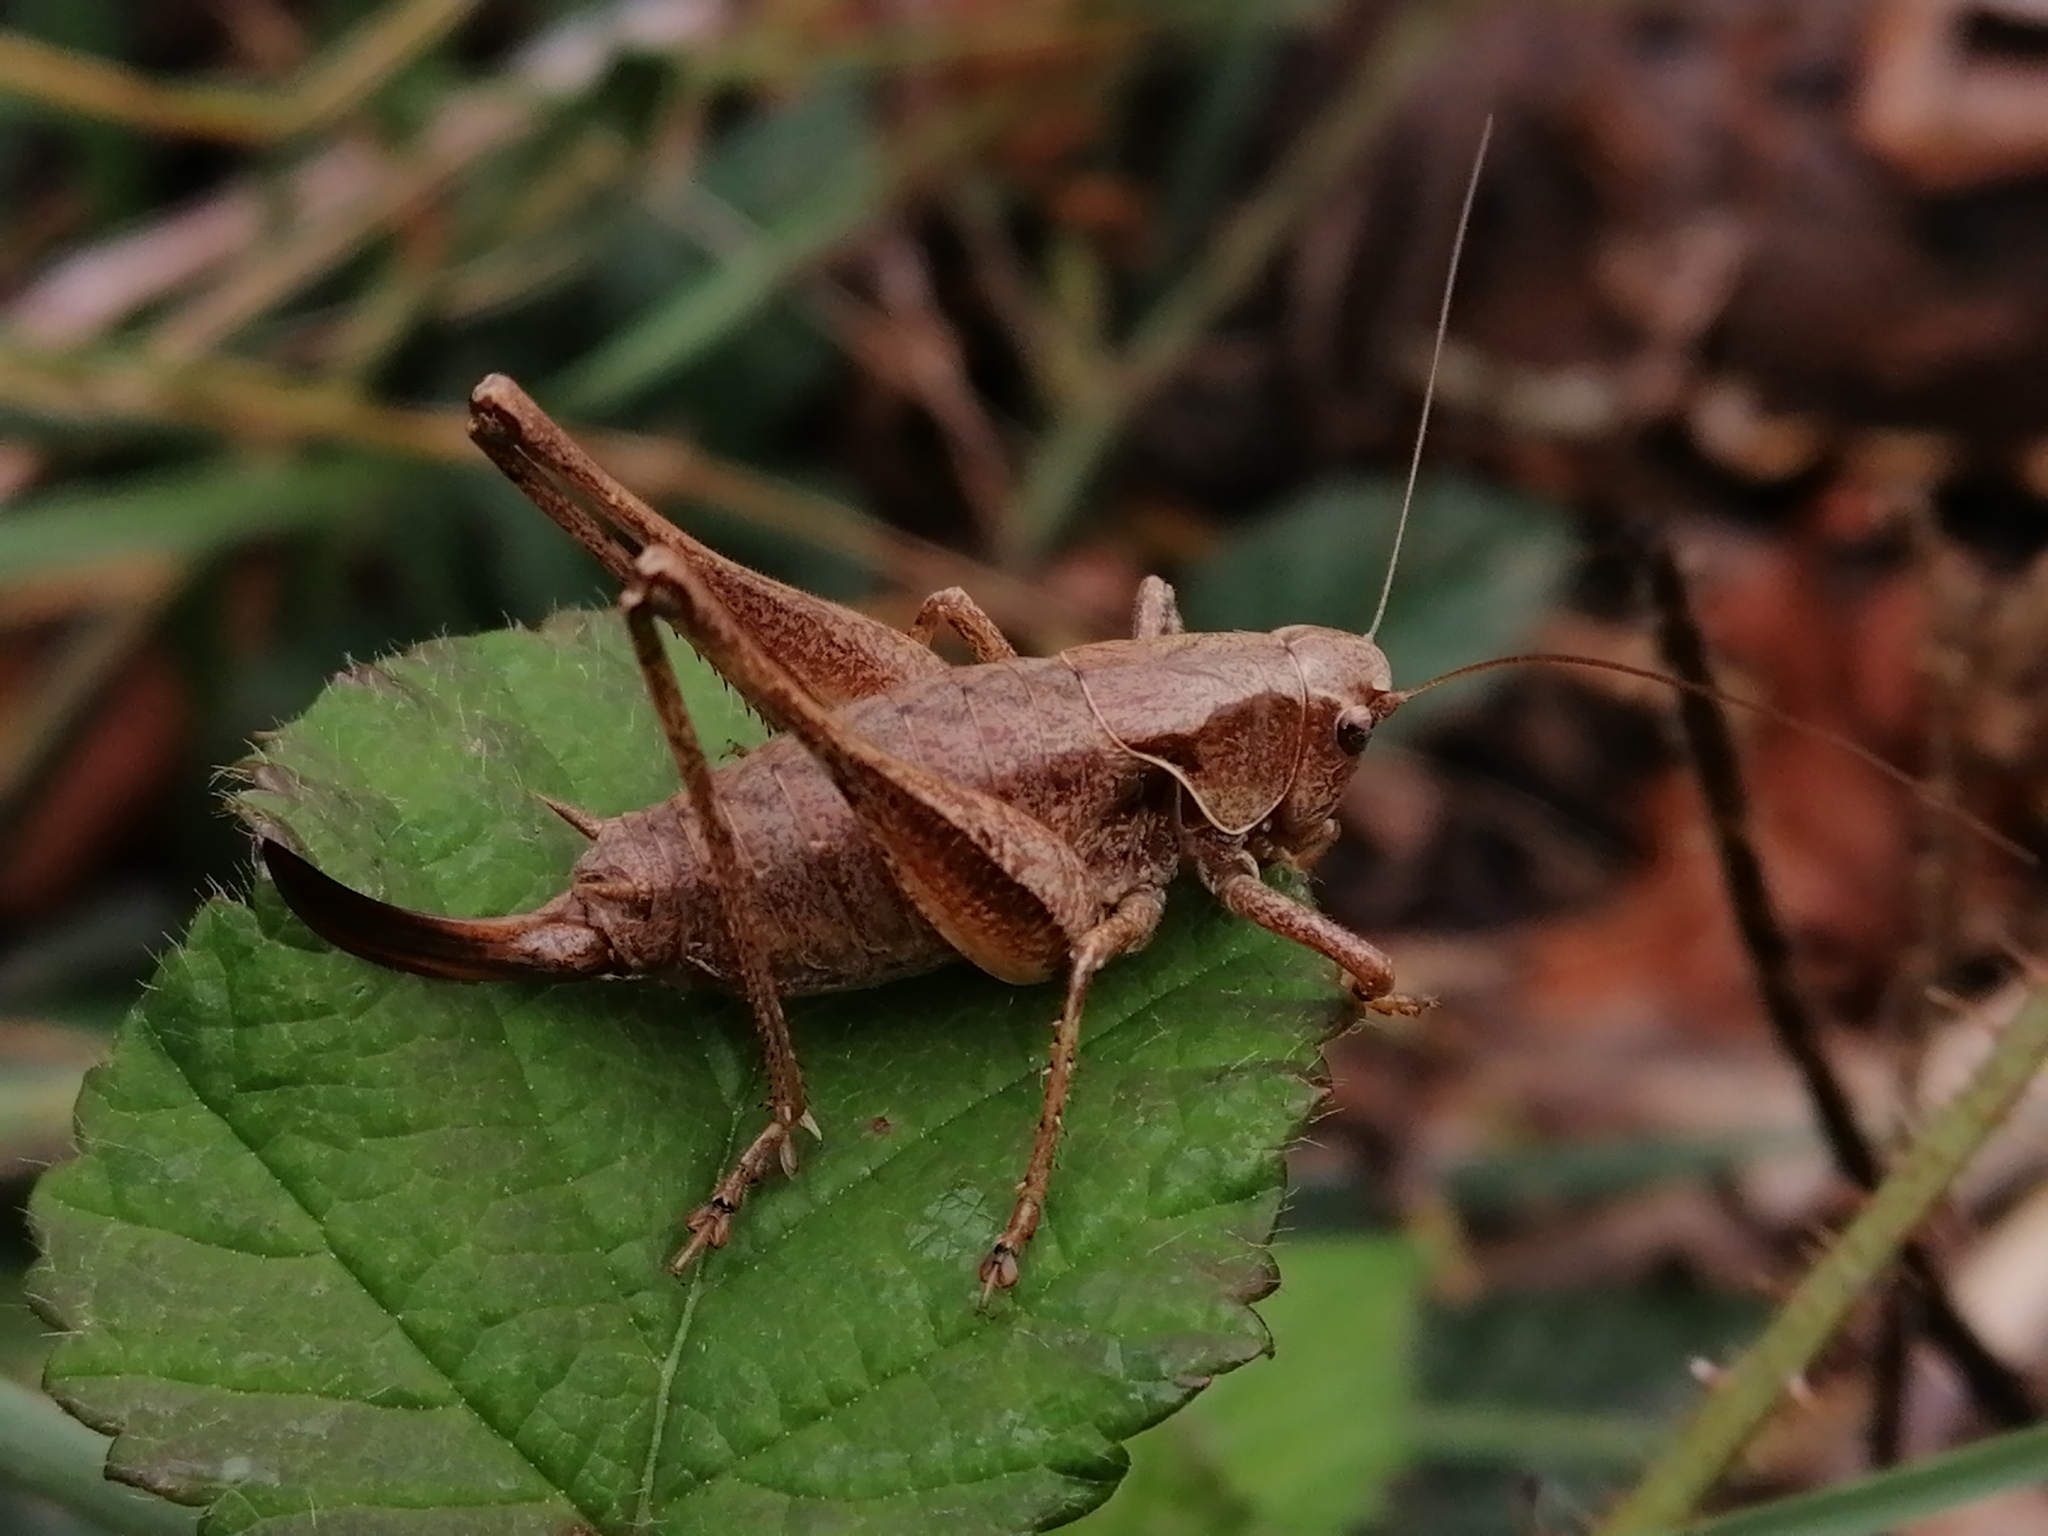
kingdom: Animalia
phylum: Arthropoda
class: Insecta
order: Orthoptera
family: Tettigoniidae
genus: Pholidoptera
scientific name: Pholidoptera griseoaptera
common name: Dark bush-cricket
